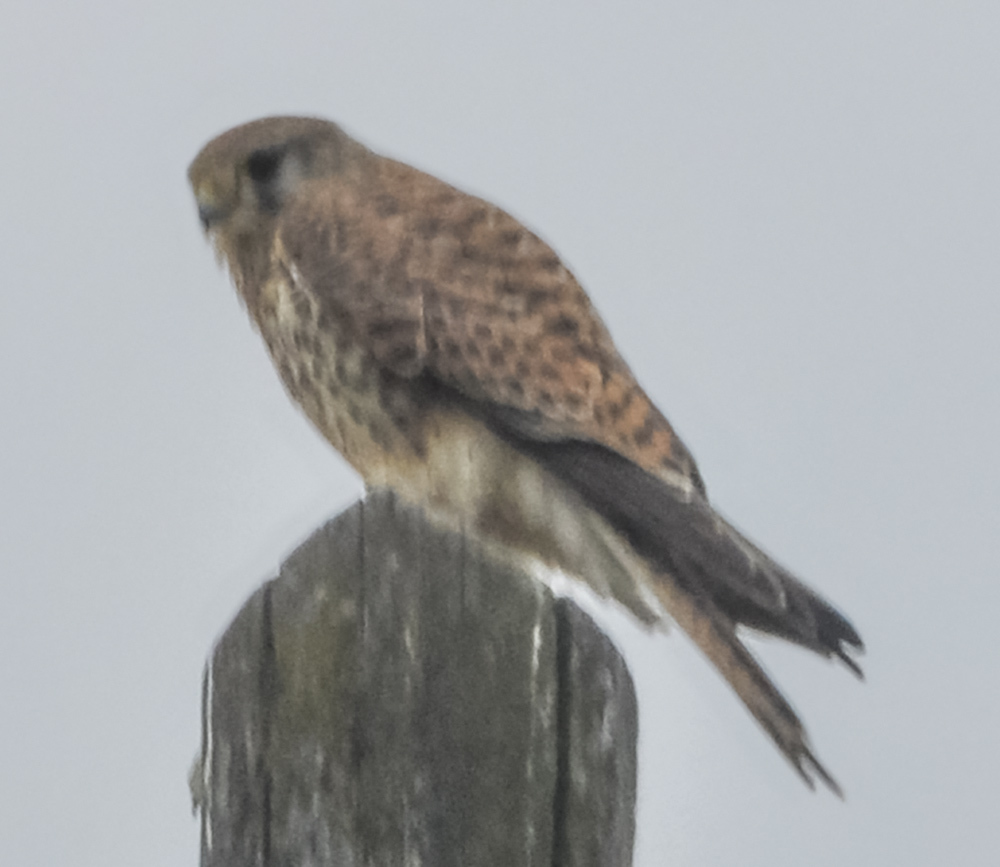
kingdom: Animalia
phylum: Chordata
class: Aves
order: Falconiformes
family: Falconidae
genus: Falco
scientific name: Falco tinnunculus
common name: Common kestrel
